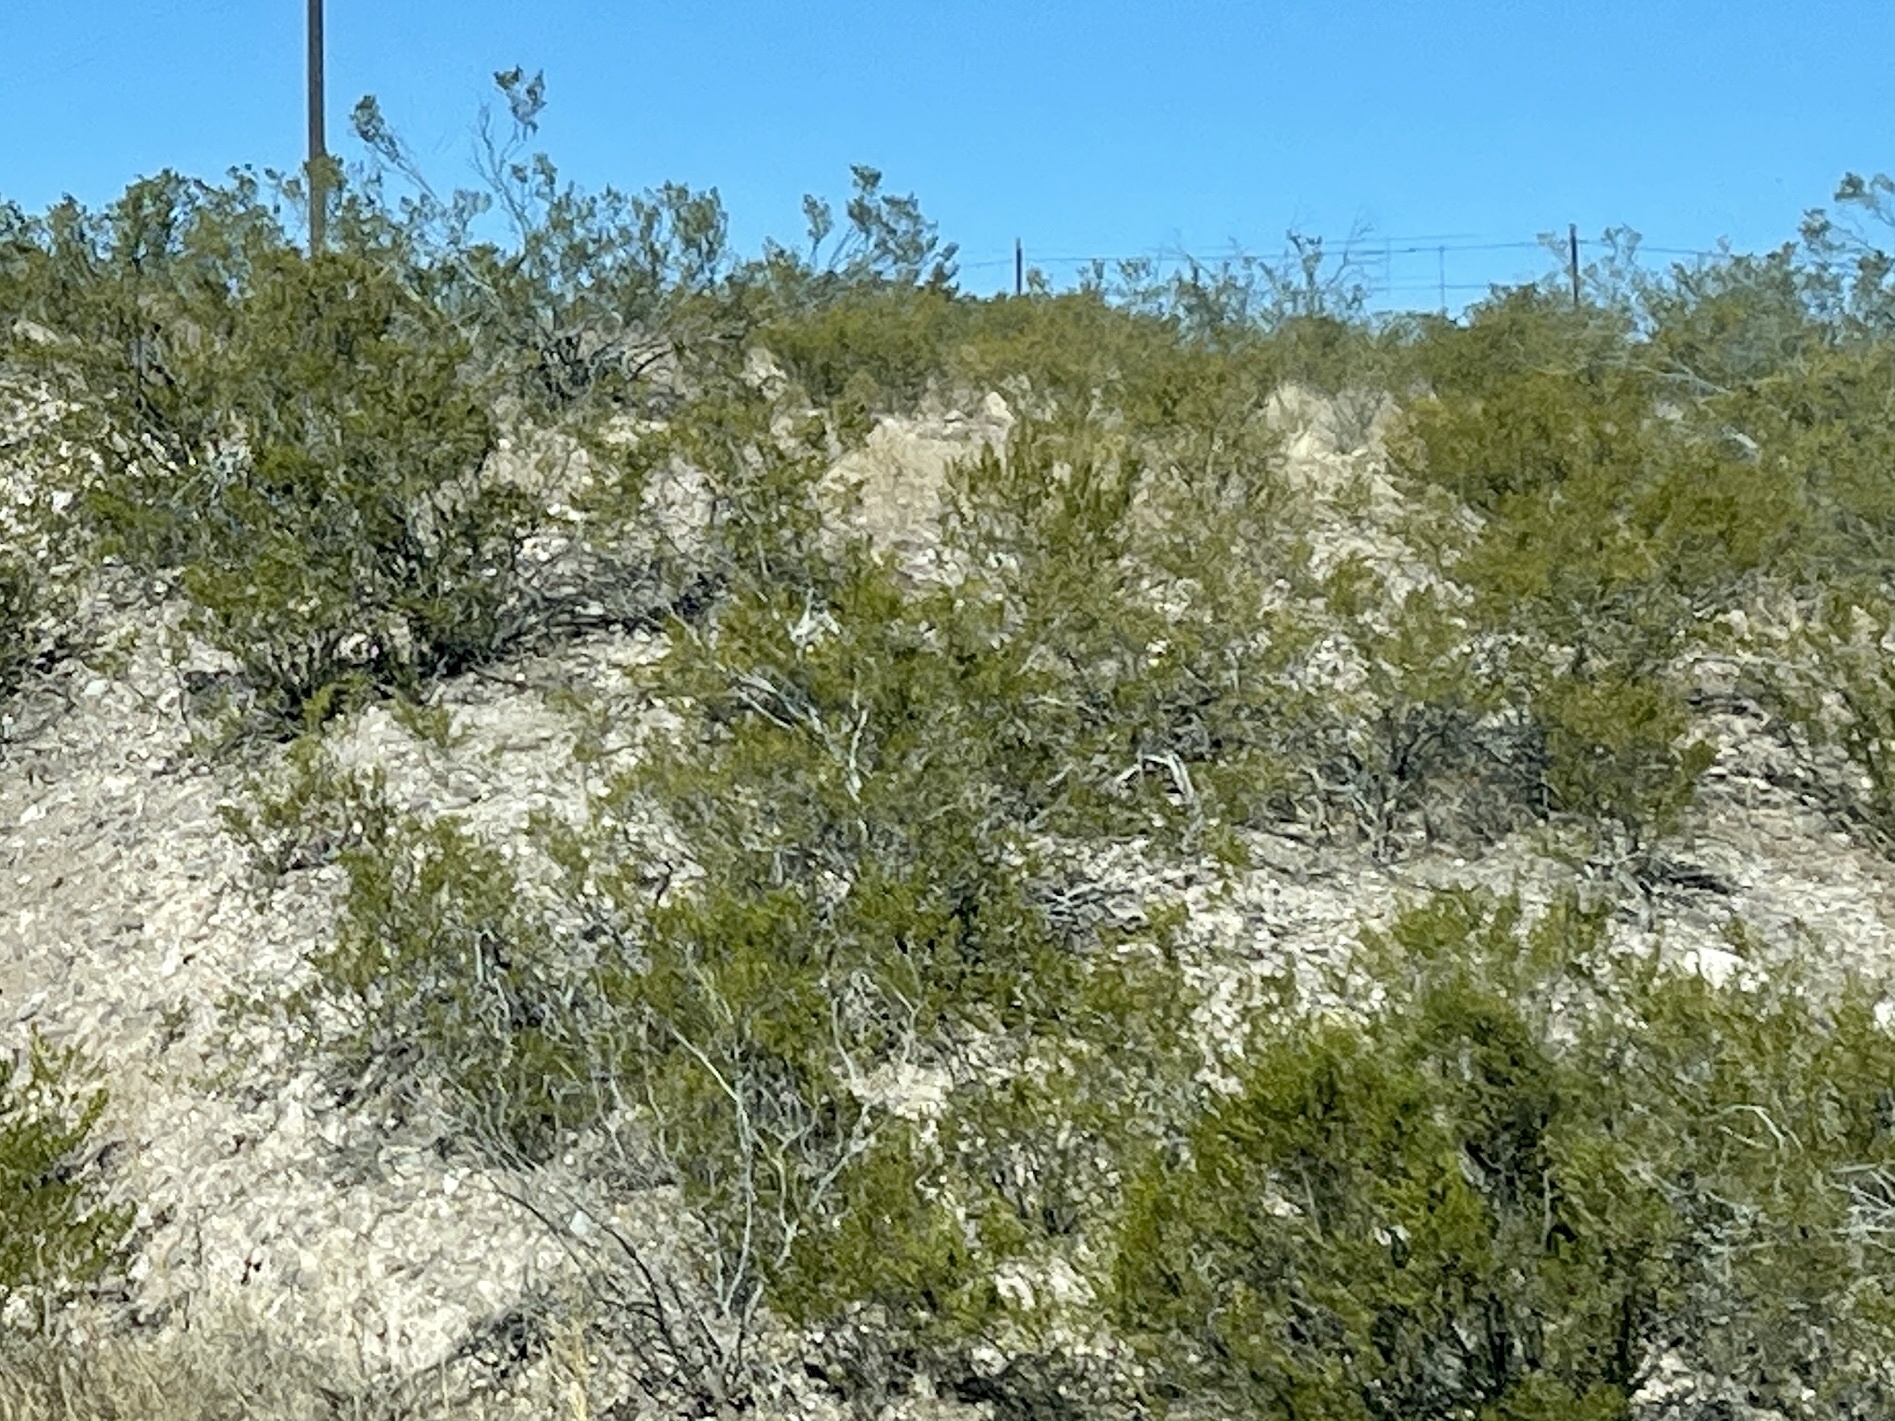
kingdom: Plantae
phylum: Tracheophyta
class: Magnoliopsida
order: Zygophyllales
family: Zygophyllaceae
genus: Larrea
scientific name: Larrea tridentata
